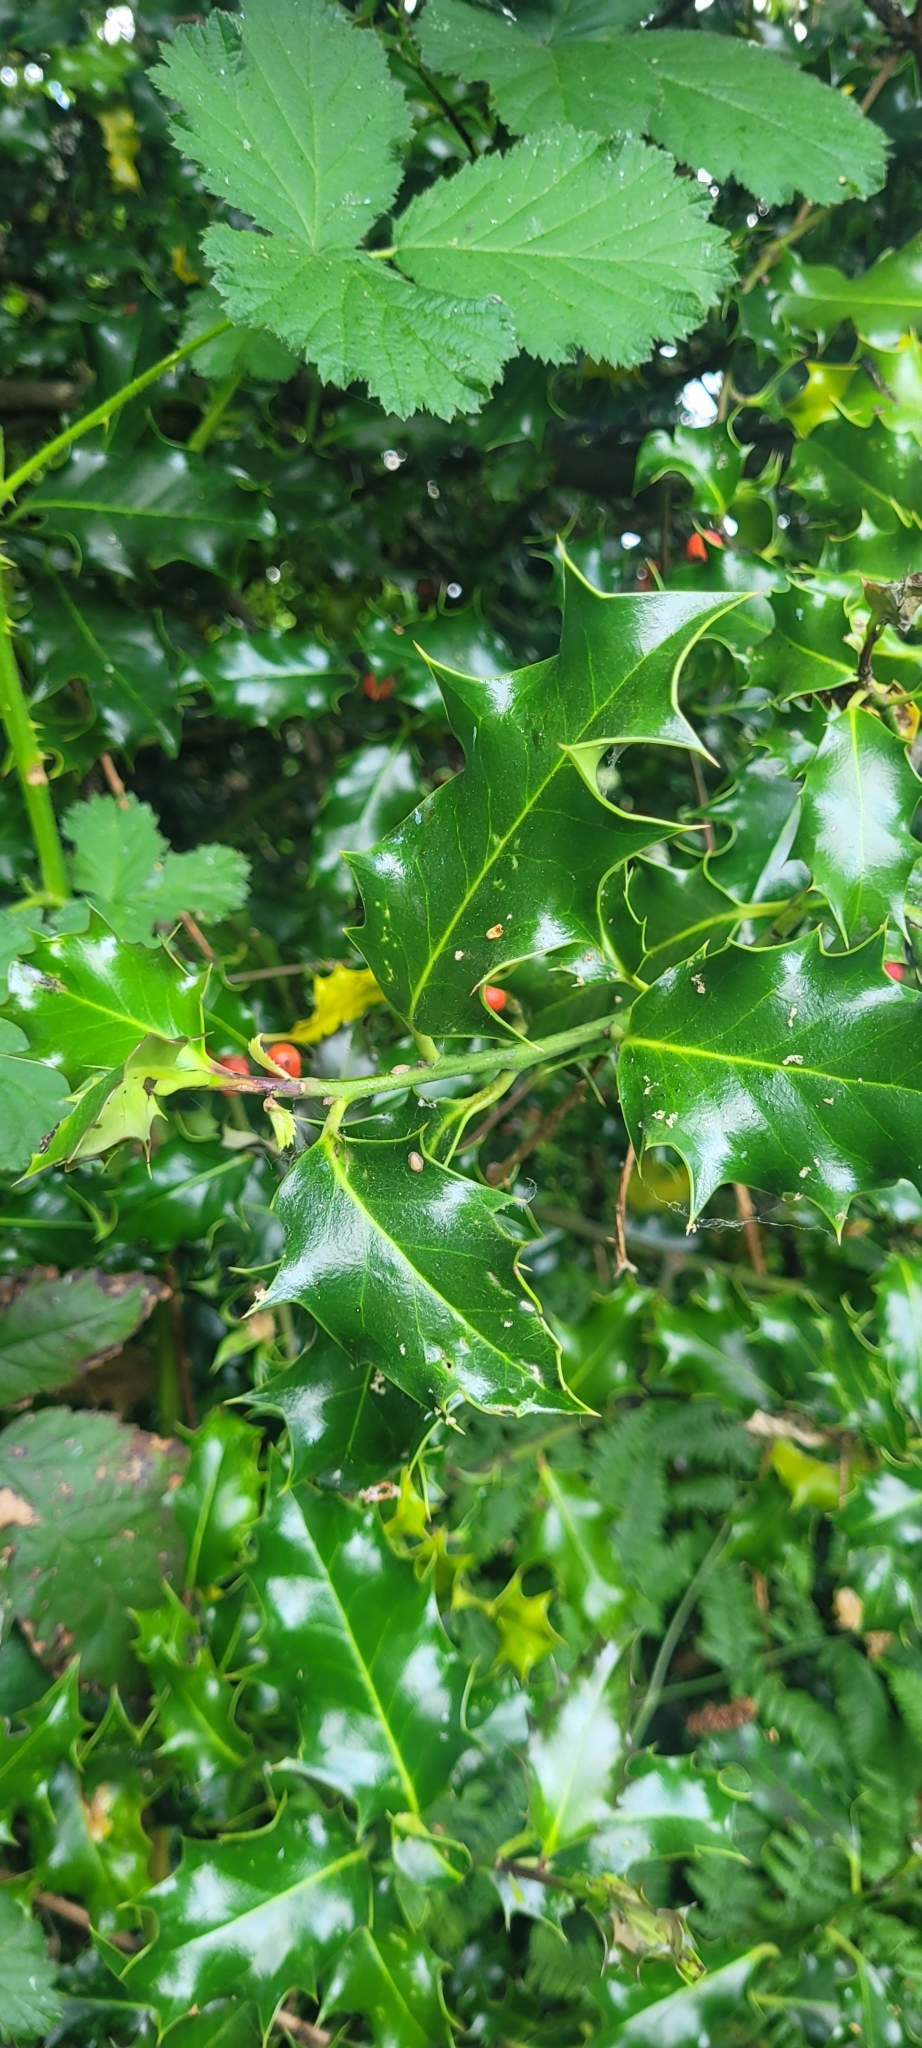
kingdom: Plantae
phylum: Tracheophyta
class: Magnoliopsida
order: Aquifoliales
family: Aquifoliaceae
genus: Ilex
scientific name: Ilex aquifolium
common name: English holly
